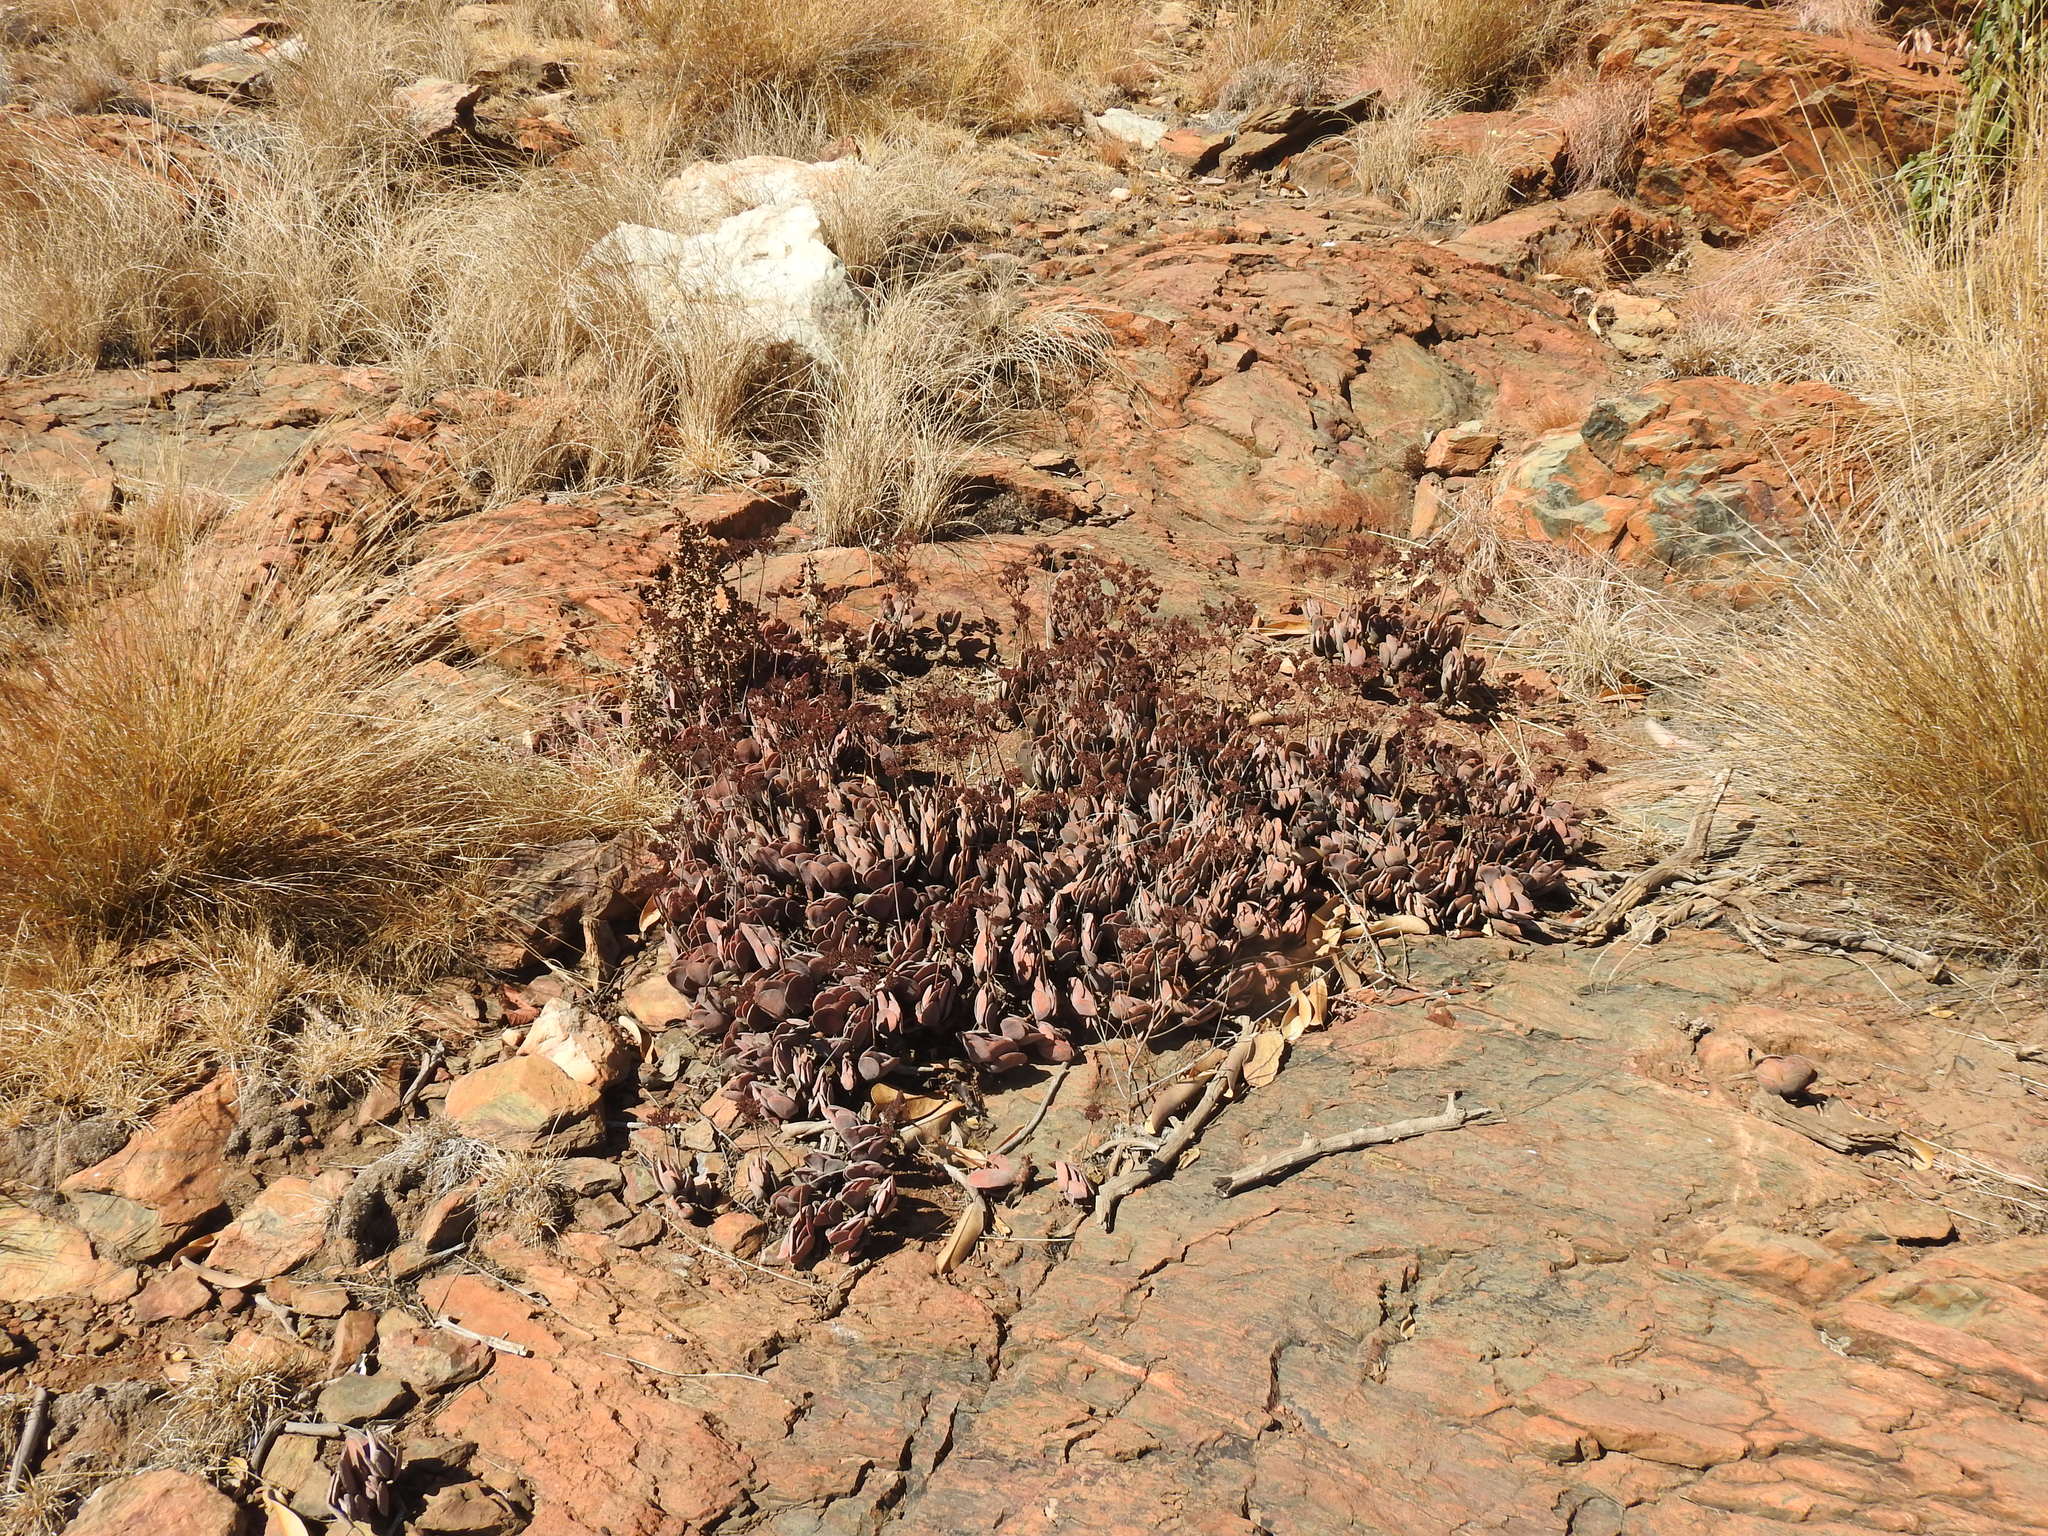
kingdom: Plantae
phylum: Tracheophyta
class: Magnoliopsida
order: Saxifragales
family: Crassulaceae
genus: Crassula
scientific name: Crassula globularioides
